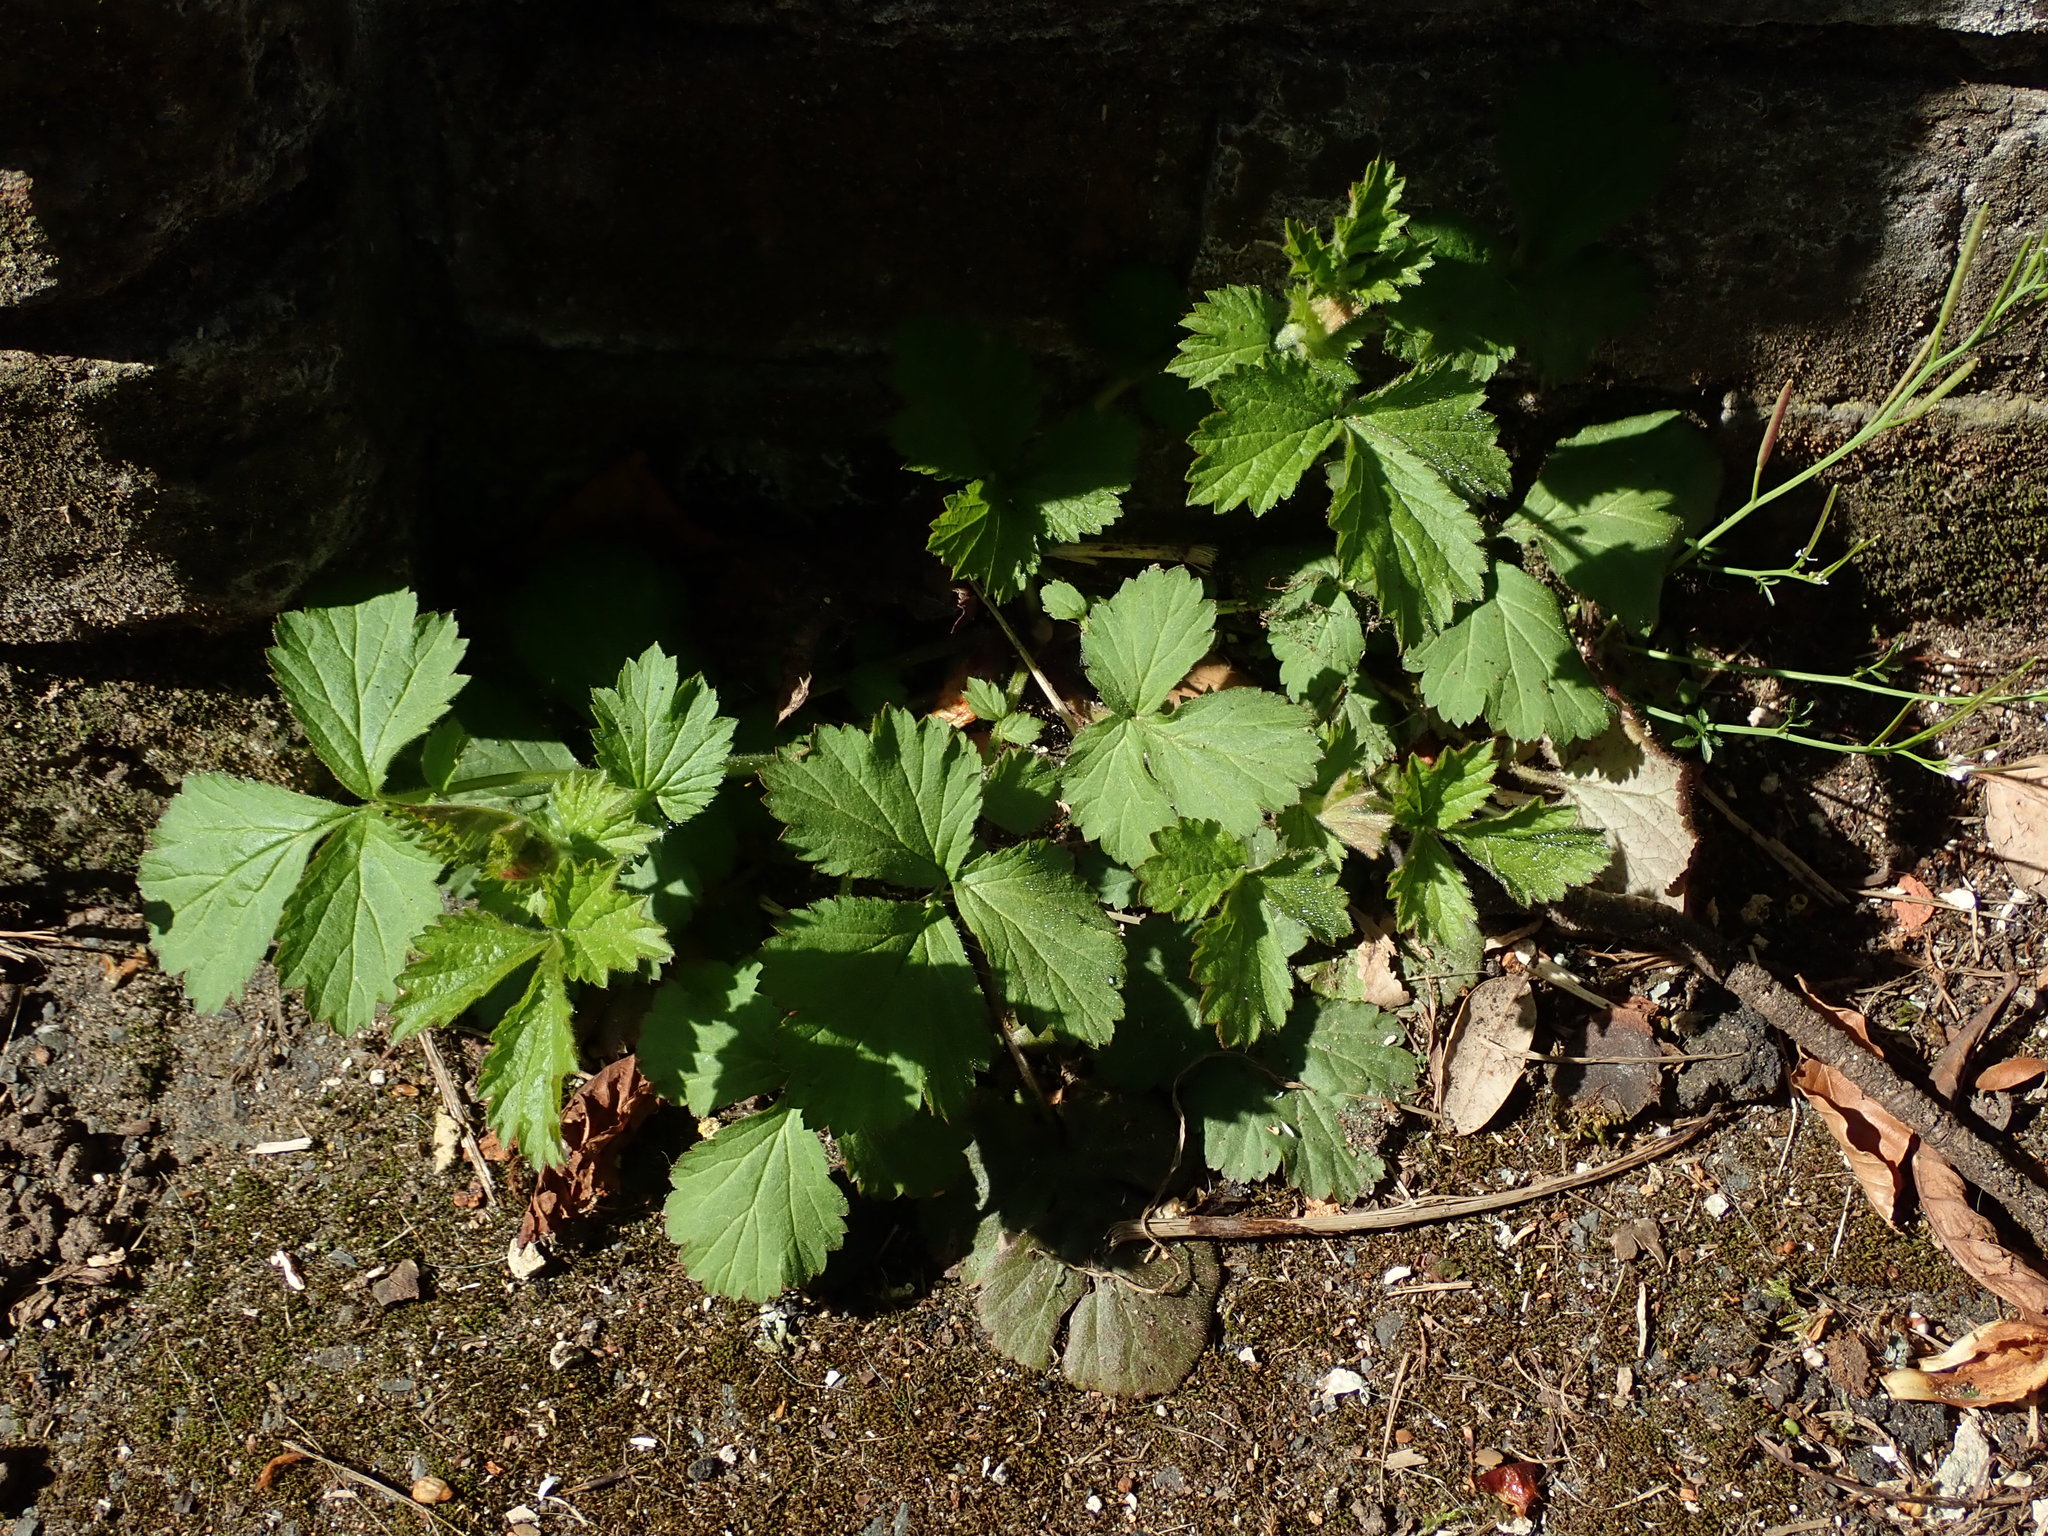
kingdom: Plantae
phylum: Tracheophyta
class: Magnoliopsida
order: Rosales
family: Rosaceae
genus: Geum
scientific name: Geum urbanum
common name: Wood avens
